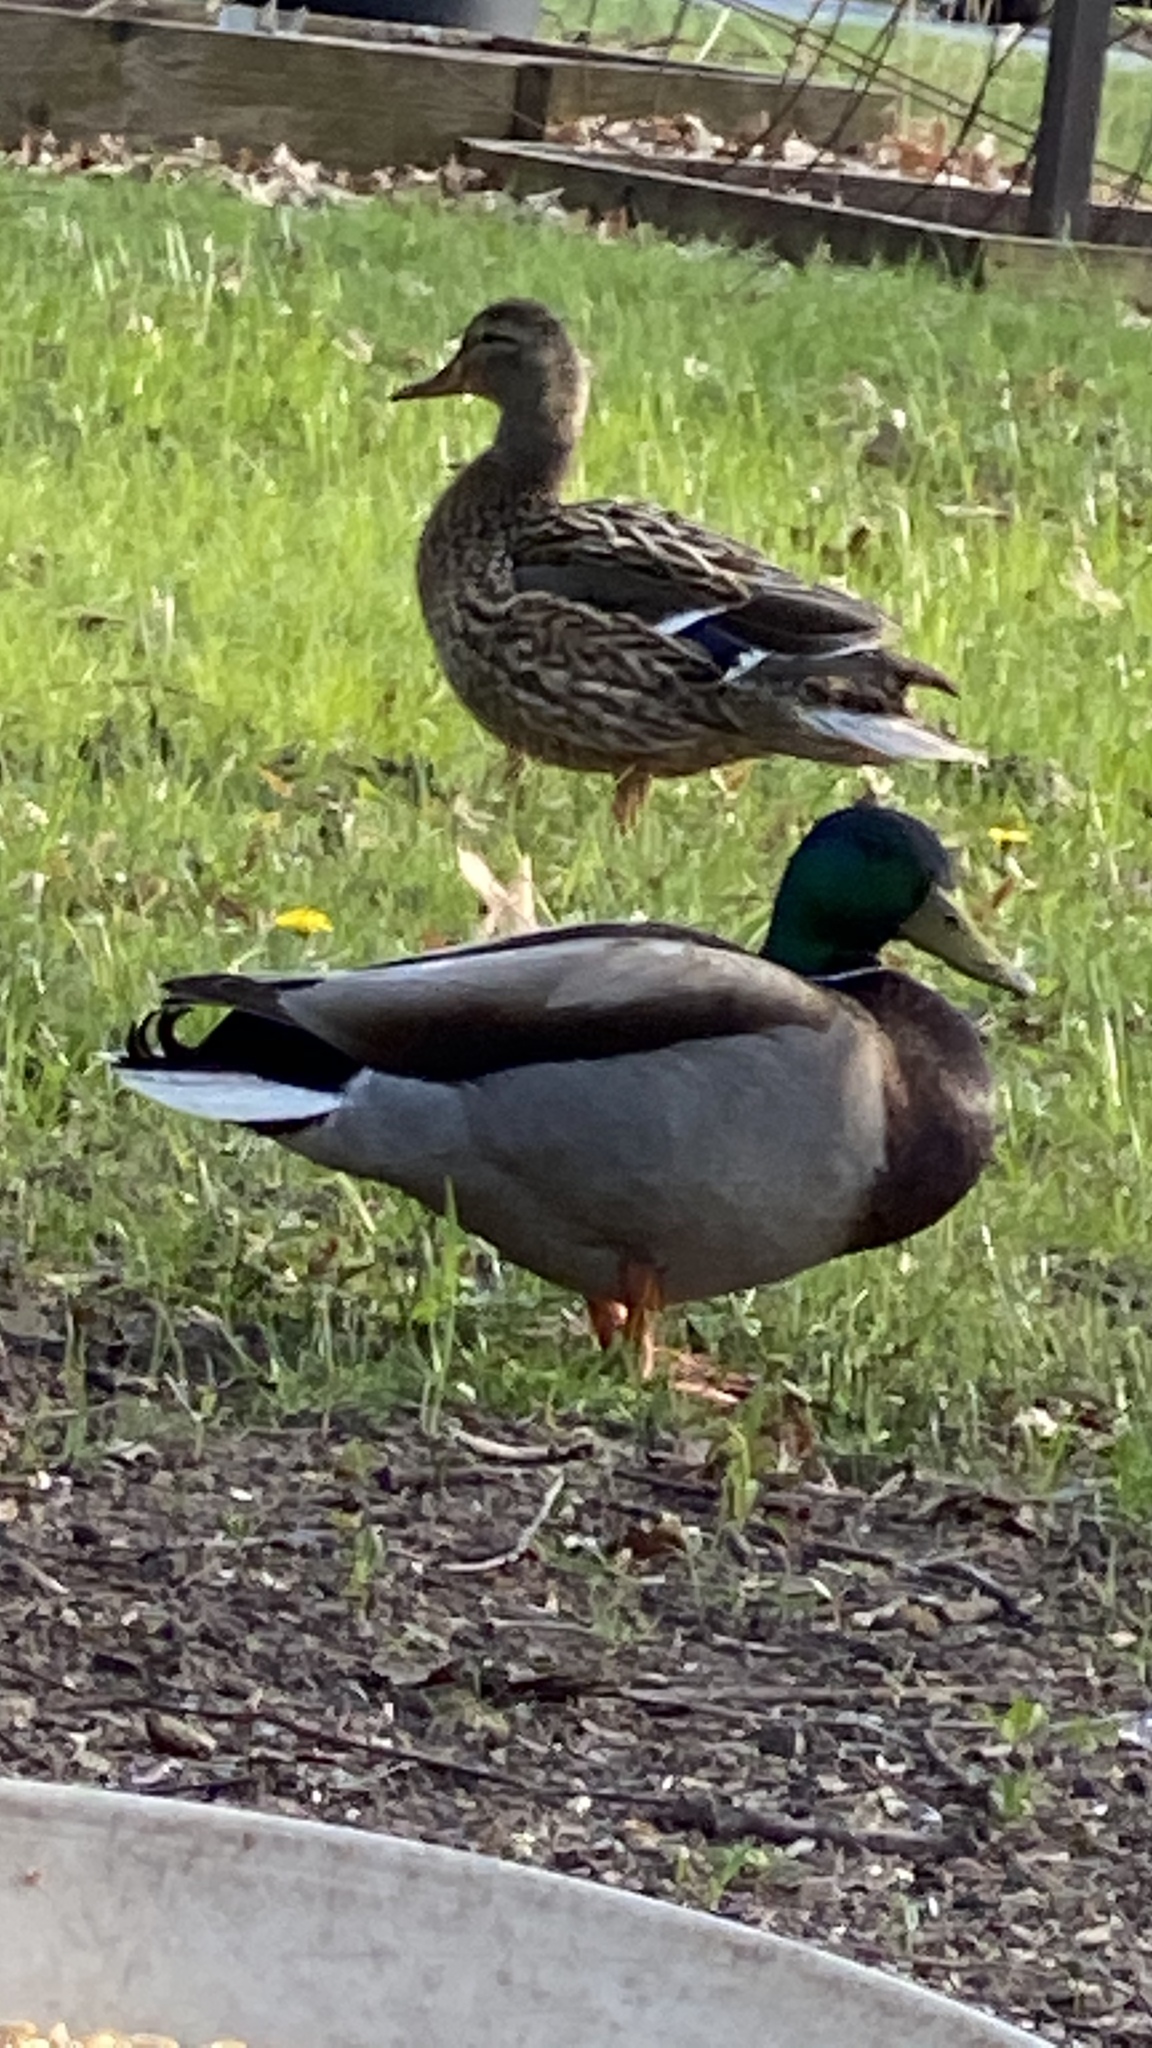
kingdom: Animalia
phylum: Chordata
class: Aves
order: Anseriformes
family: Anatidae
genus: Anas
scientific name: Anas platyrhynchos
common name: Mallard
